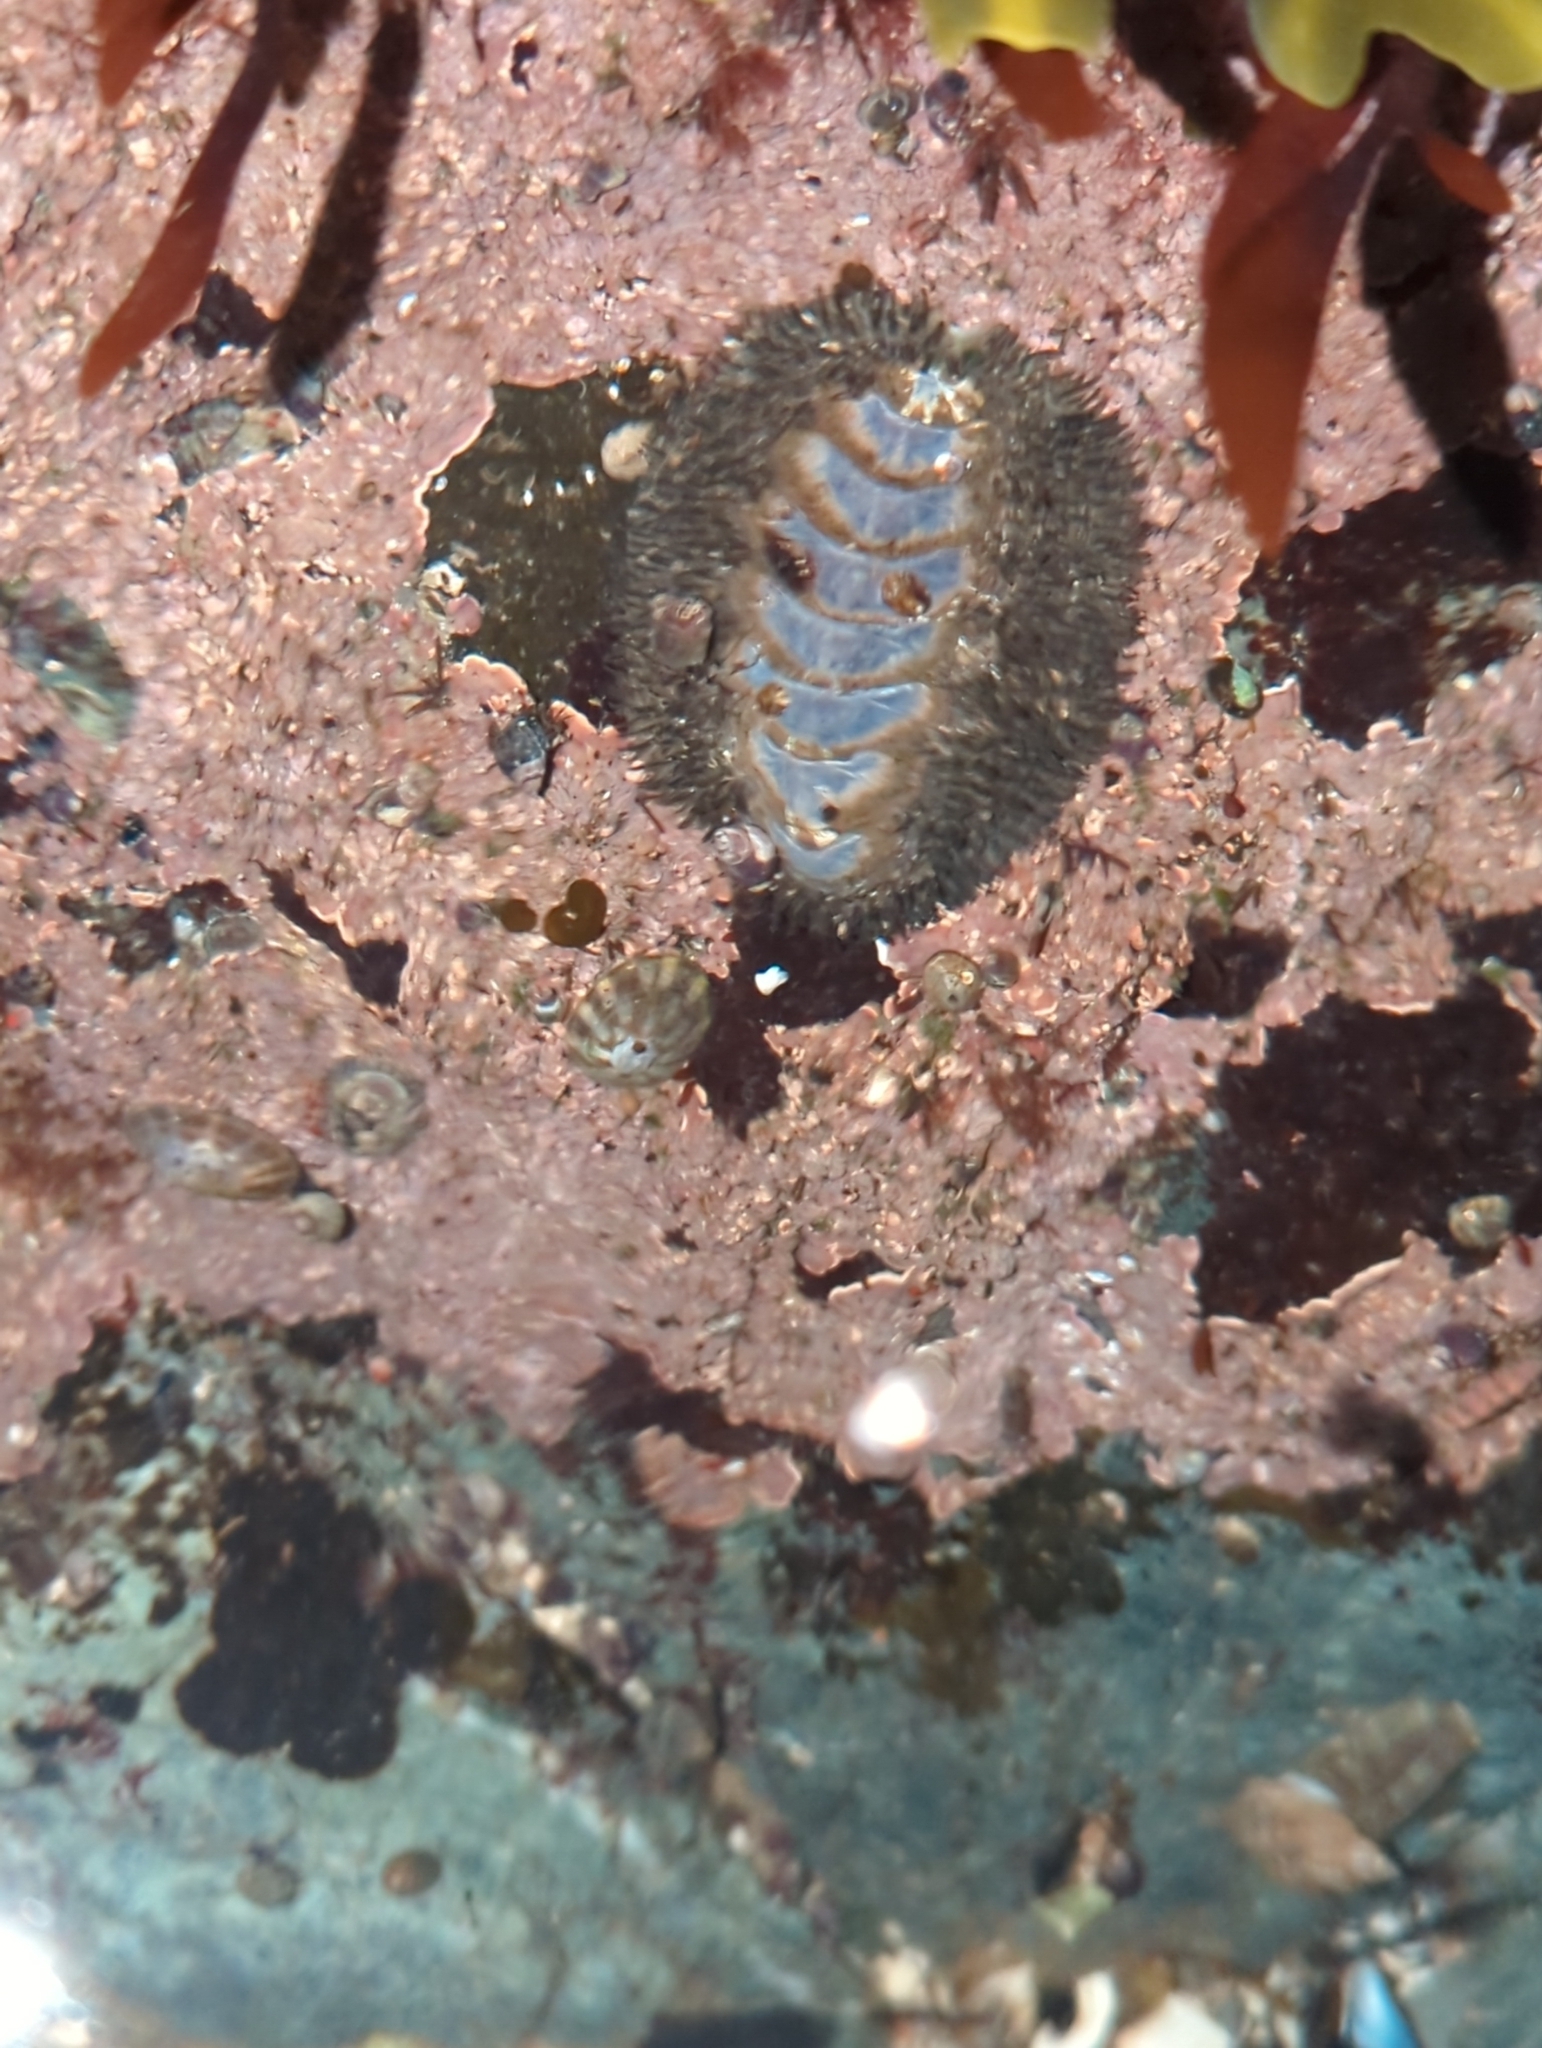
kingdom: Animalia
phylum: Mollusca
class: Polyplacophora
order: Chitonida
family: Mopaliidae
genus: Mopalia
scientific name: Mopalia muscosa
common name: Mossy chiton
